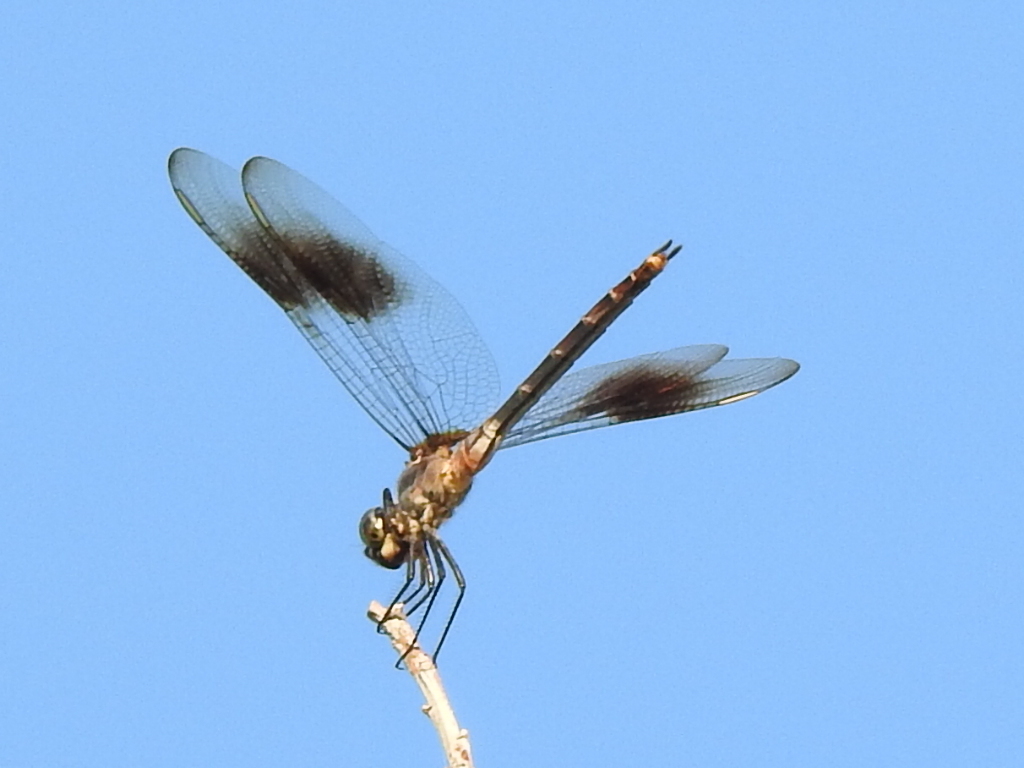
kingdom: Animalia
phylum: Arthropoda
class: Insecta
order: Odonata
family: Libellulidae
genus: Brachymesia
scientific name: Brachymesia gravida
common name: Four-spotted pennant
